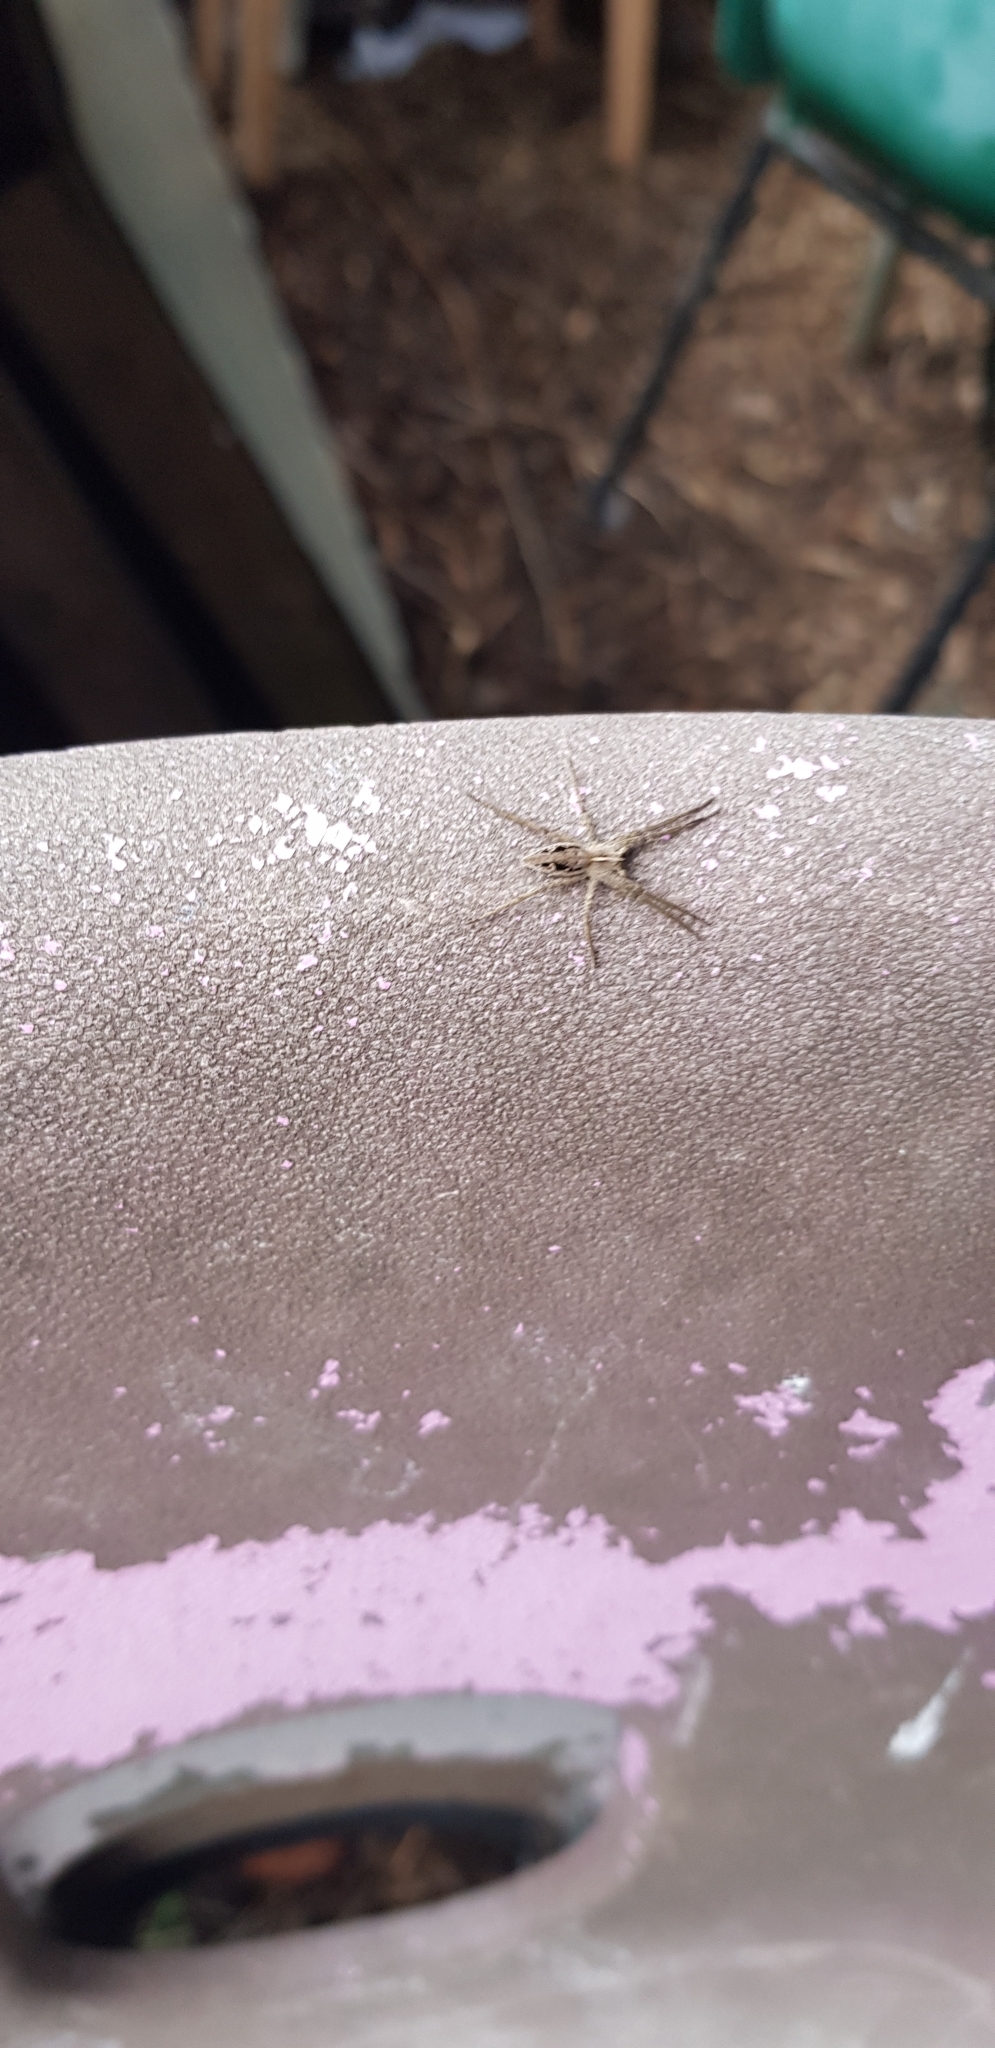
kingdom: Animalia
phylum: Arthropoda
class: Arachnida
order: Araneae
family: Pisauridae
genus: Pisaura
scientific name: Pisaura mirabilis
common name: Tent spider
